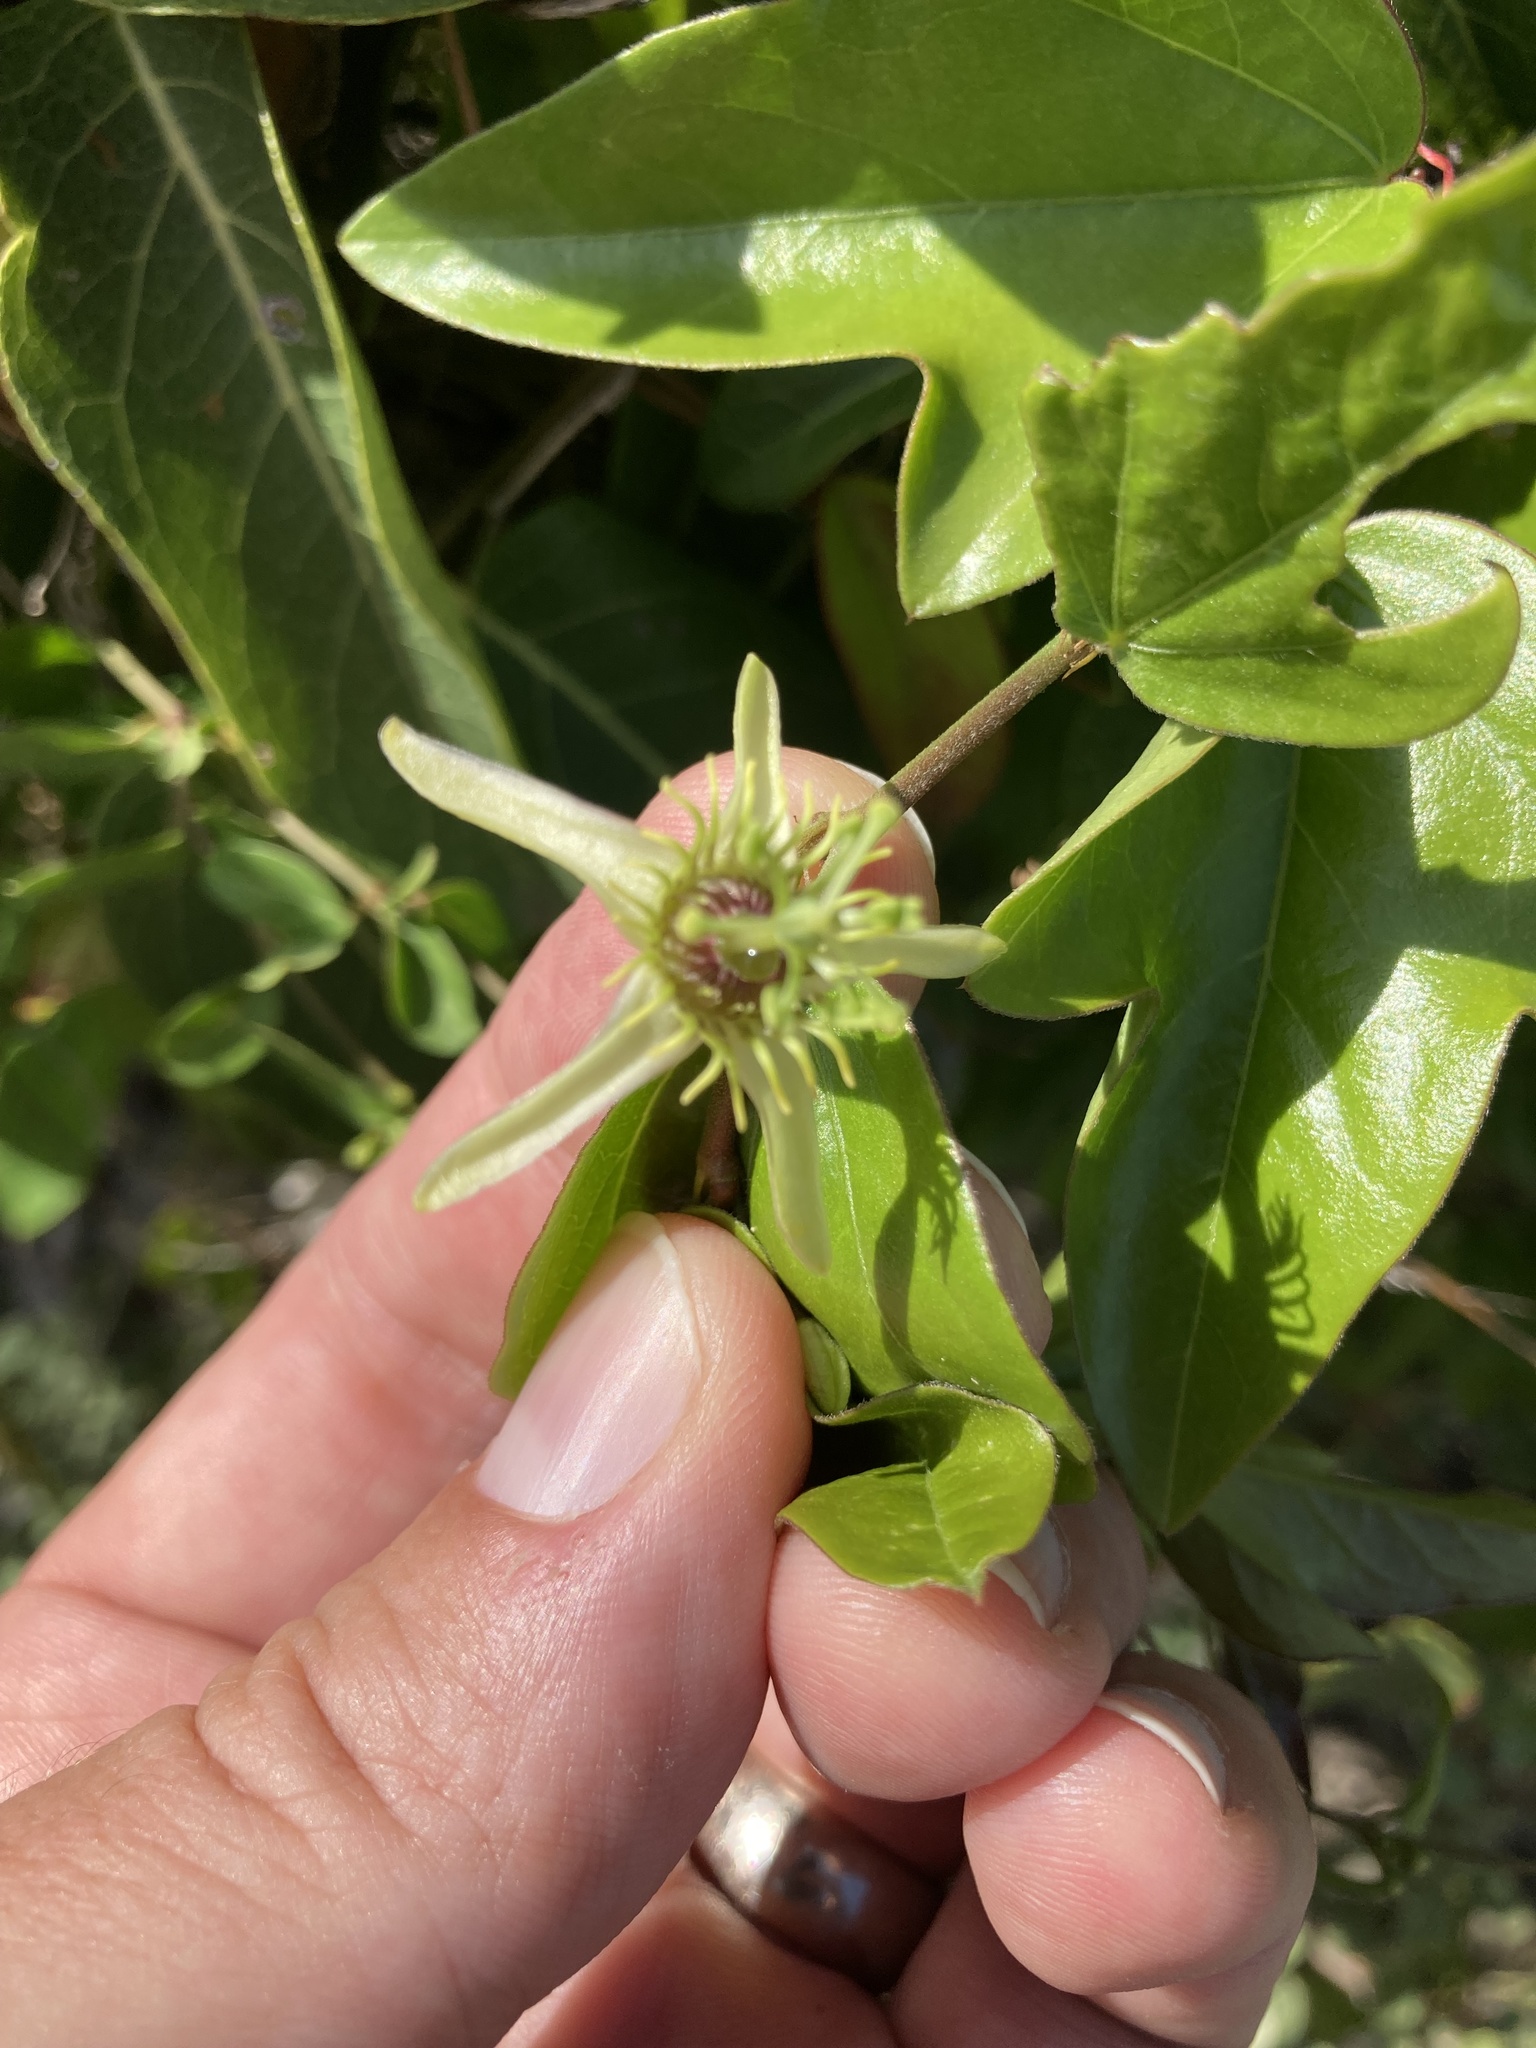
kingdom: Plantae
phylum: Tracheophyta
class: Magnoliopsida
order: Malpighiales
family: Passifloraceae
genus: Passiflora
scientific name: Passiflora pallida
